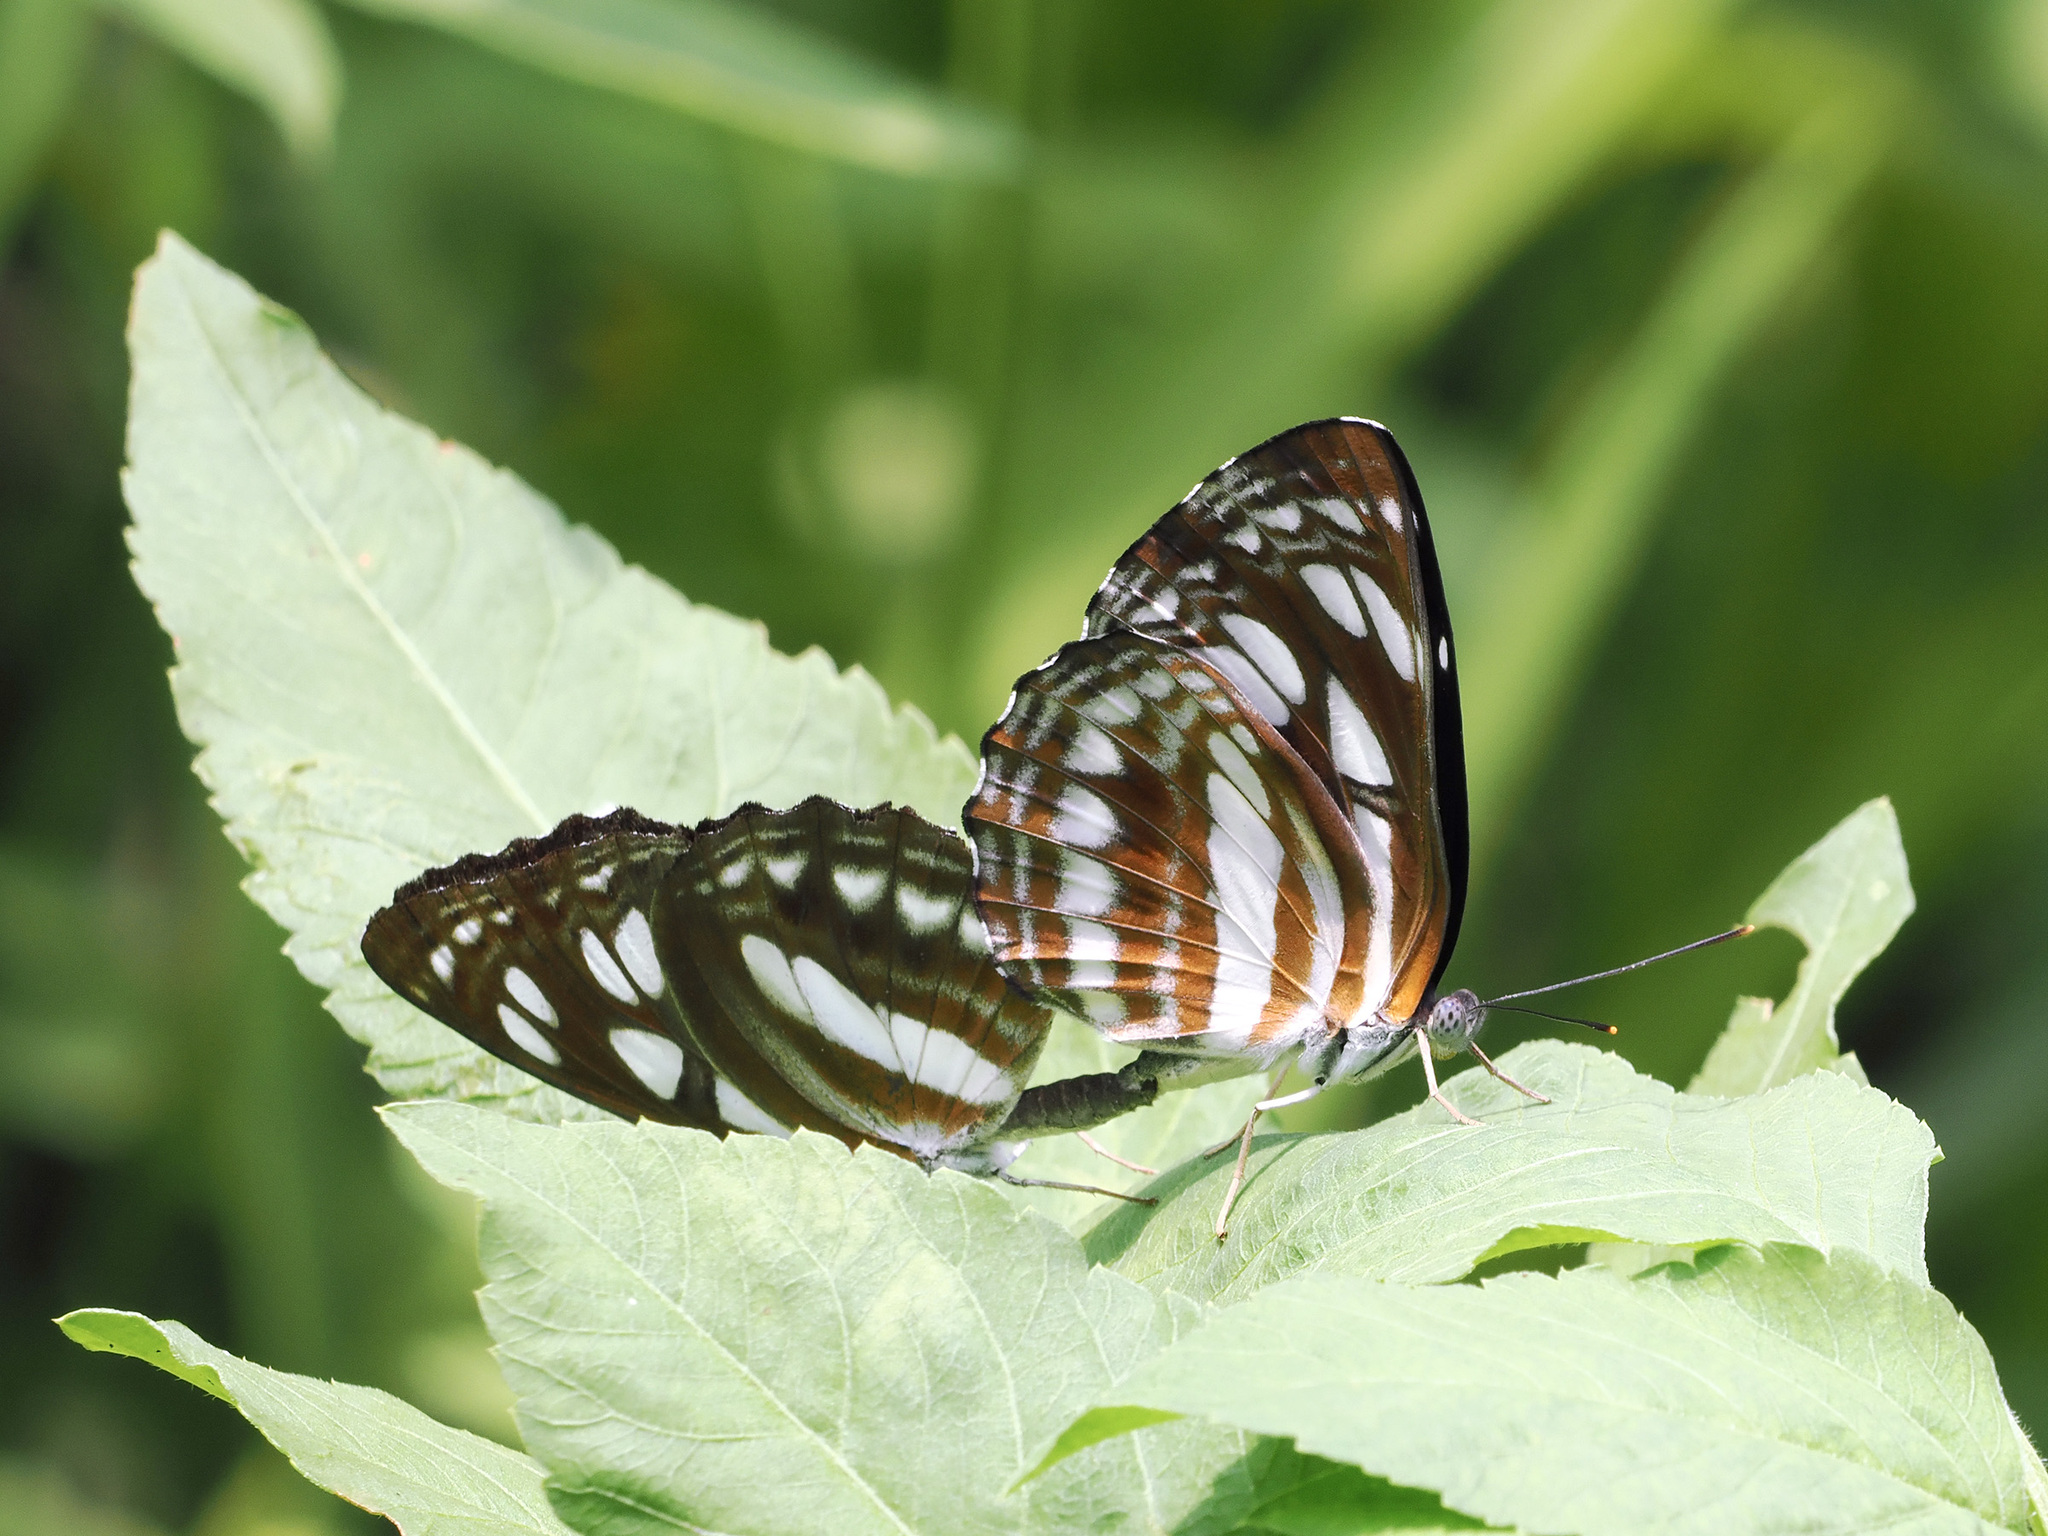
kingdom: Animalia
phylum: Arthropoda
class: Insecta
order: Lepidoptera
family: Nymphalidae
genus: Phaedyma
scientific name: Phaedyma columella
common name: Short banded sailer
